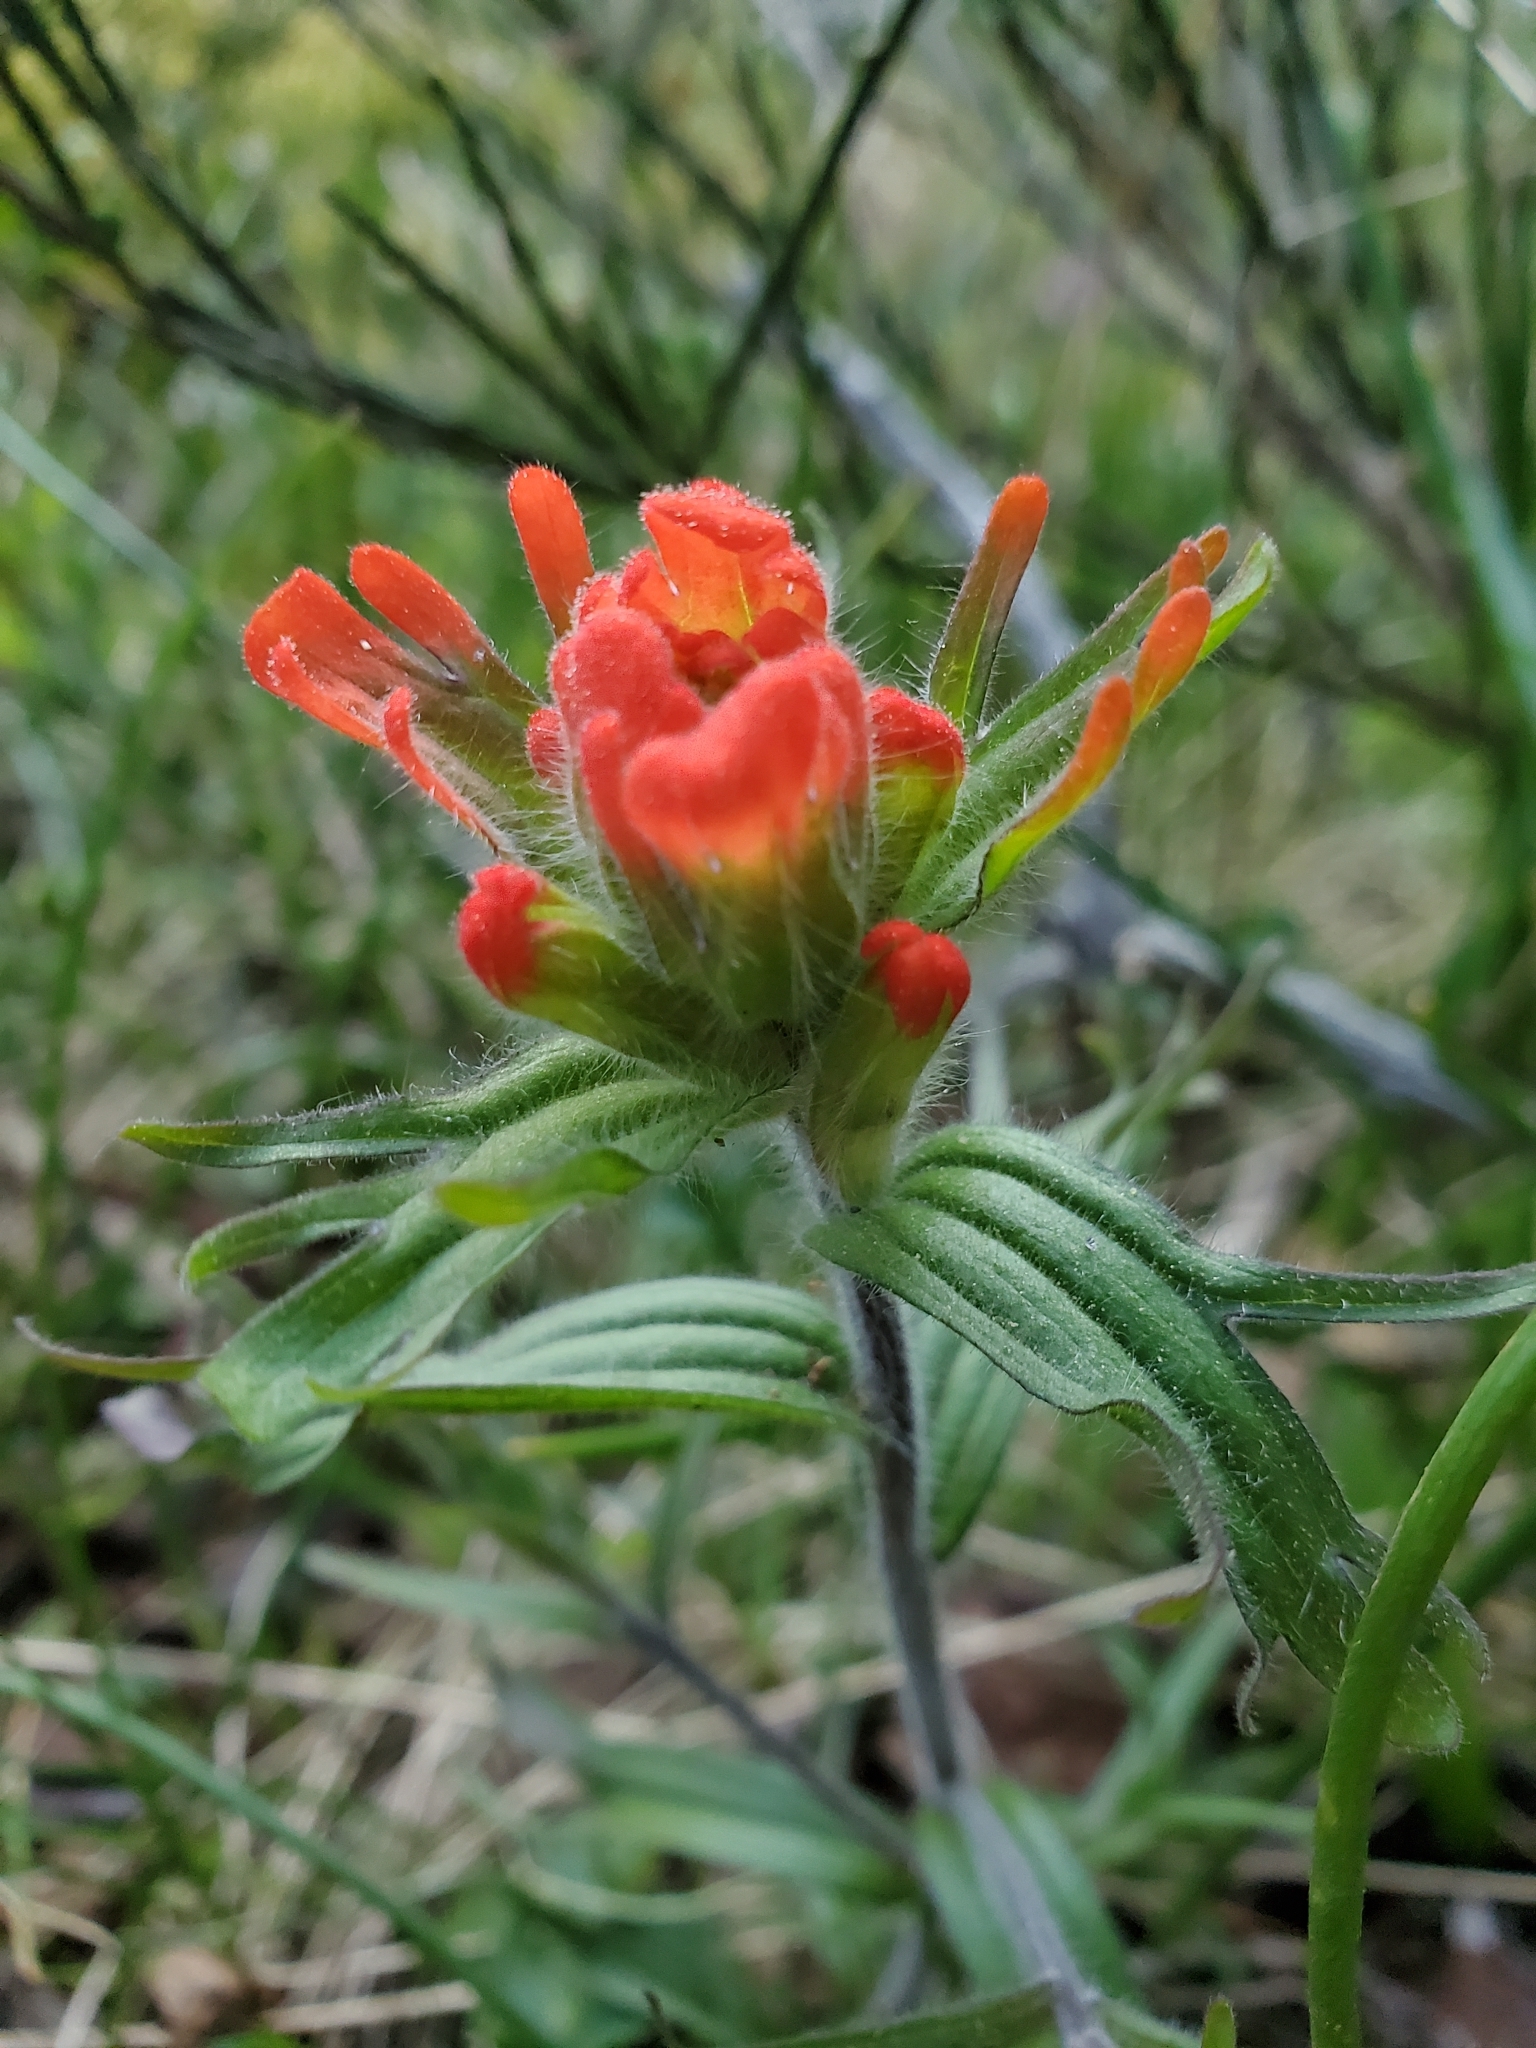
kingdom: Plantae
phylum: Tracheophyta
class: Magnoliopsida
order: Lamiales
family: Orobanchaceae
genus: Castilleja
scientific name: Castilleja hispida
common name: Bristly paintbrush
